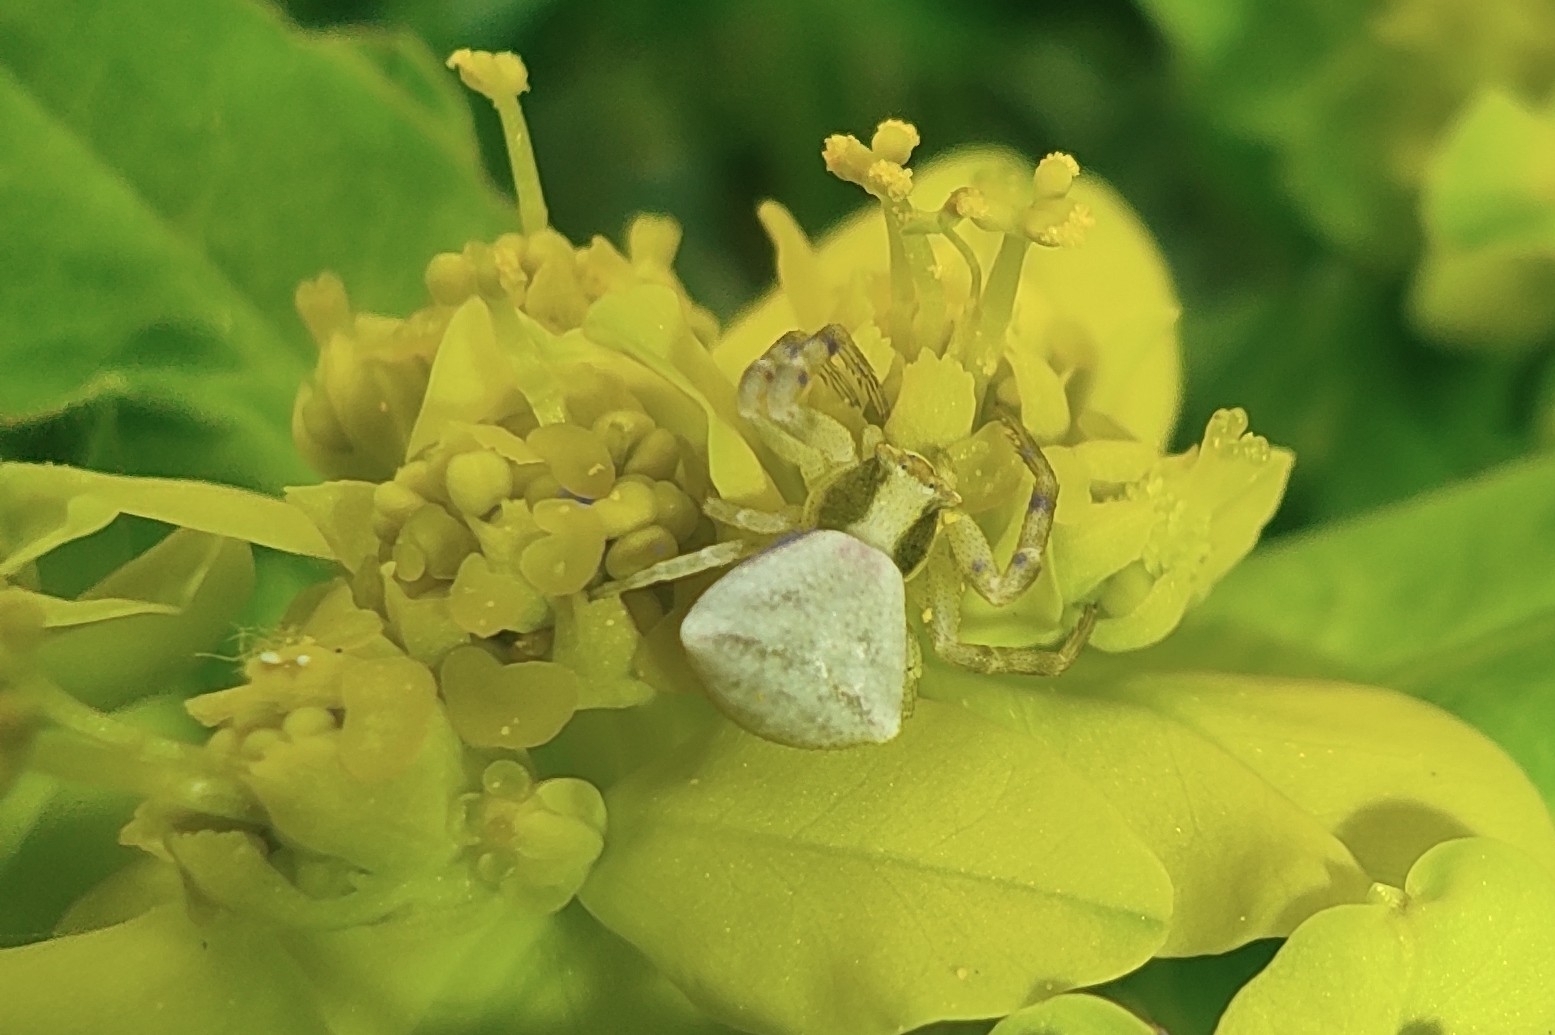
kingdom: Animalia
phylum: Arthropoda
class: Arachnida
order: Araneae
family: Thomisidae
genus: Thomisus
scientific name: Thomisus onustus
